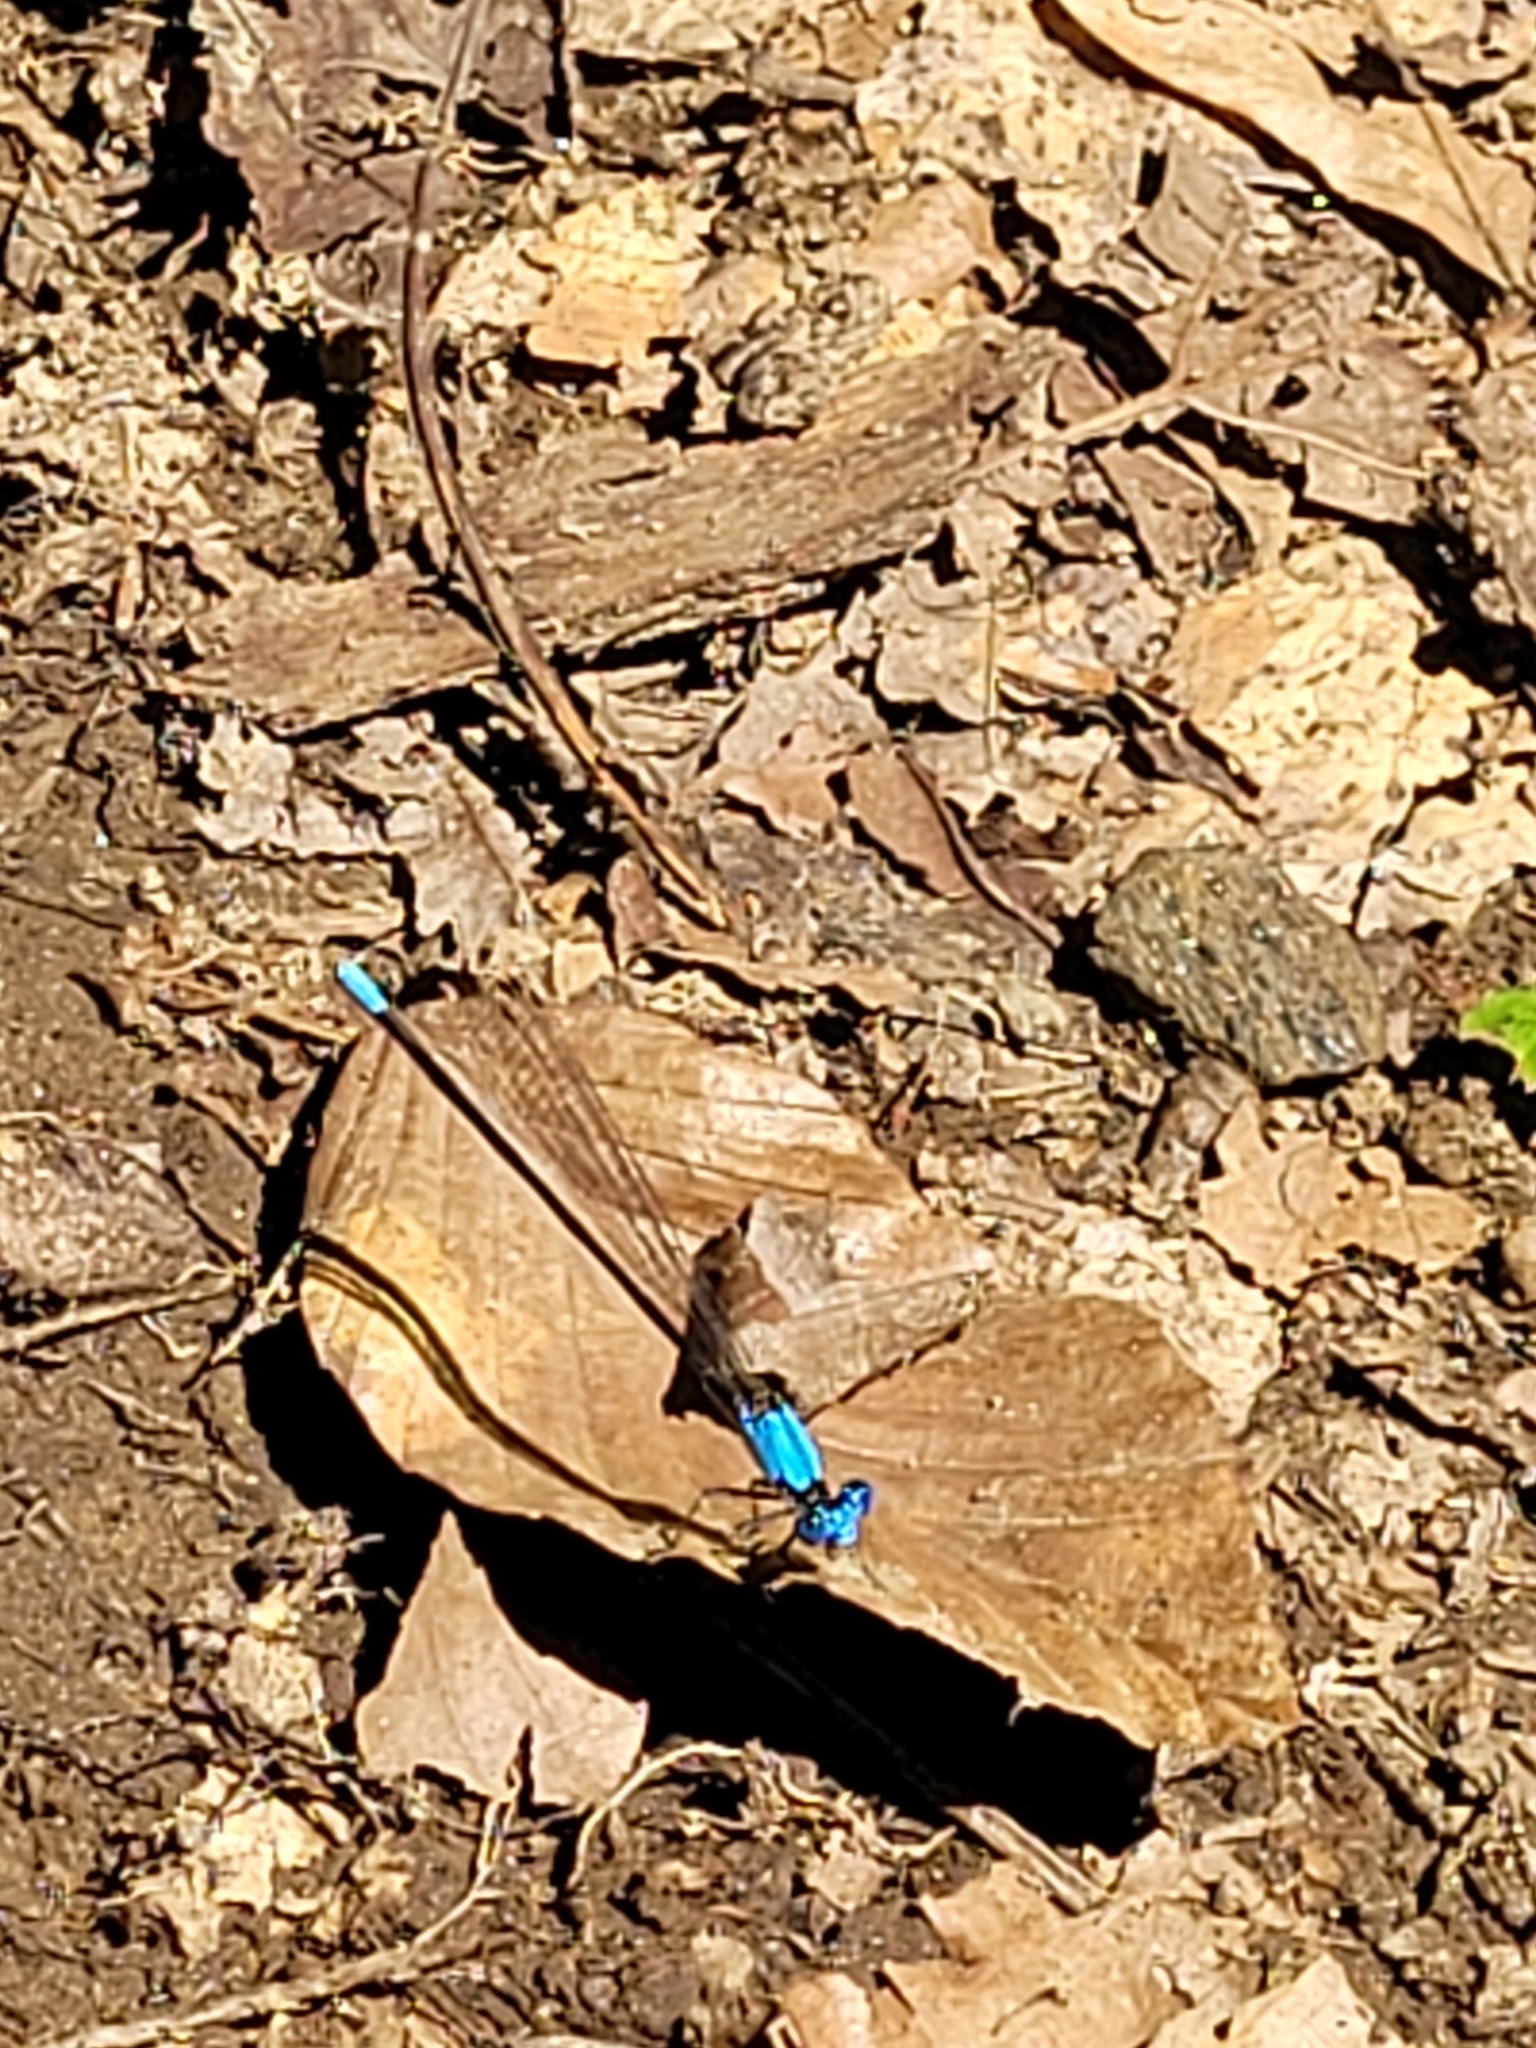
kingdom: Animalia
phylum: Arthropoda
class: Insecta
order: Odonata
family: Coenagrionidae
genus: Argia
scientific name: Argia apicalis
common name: Blue-fronted dancer
